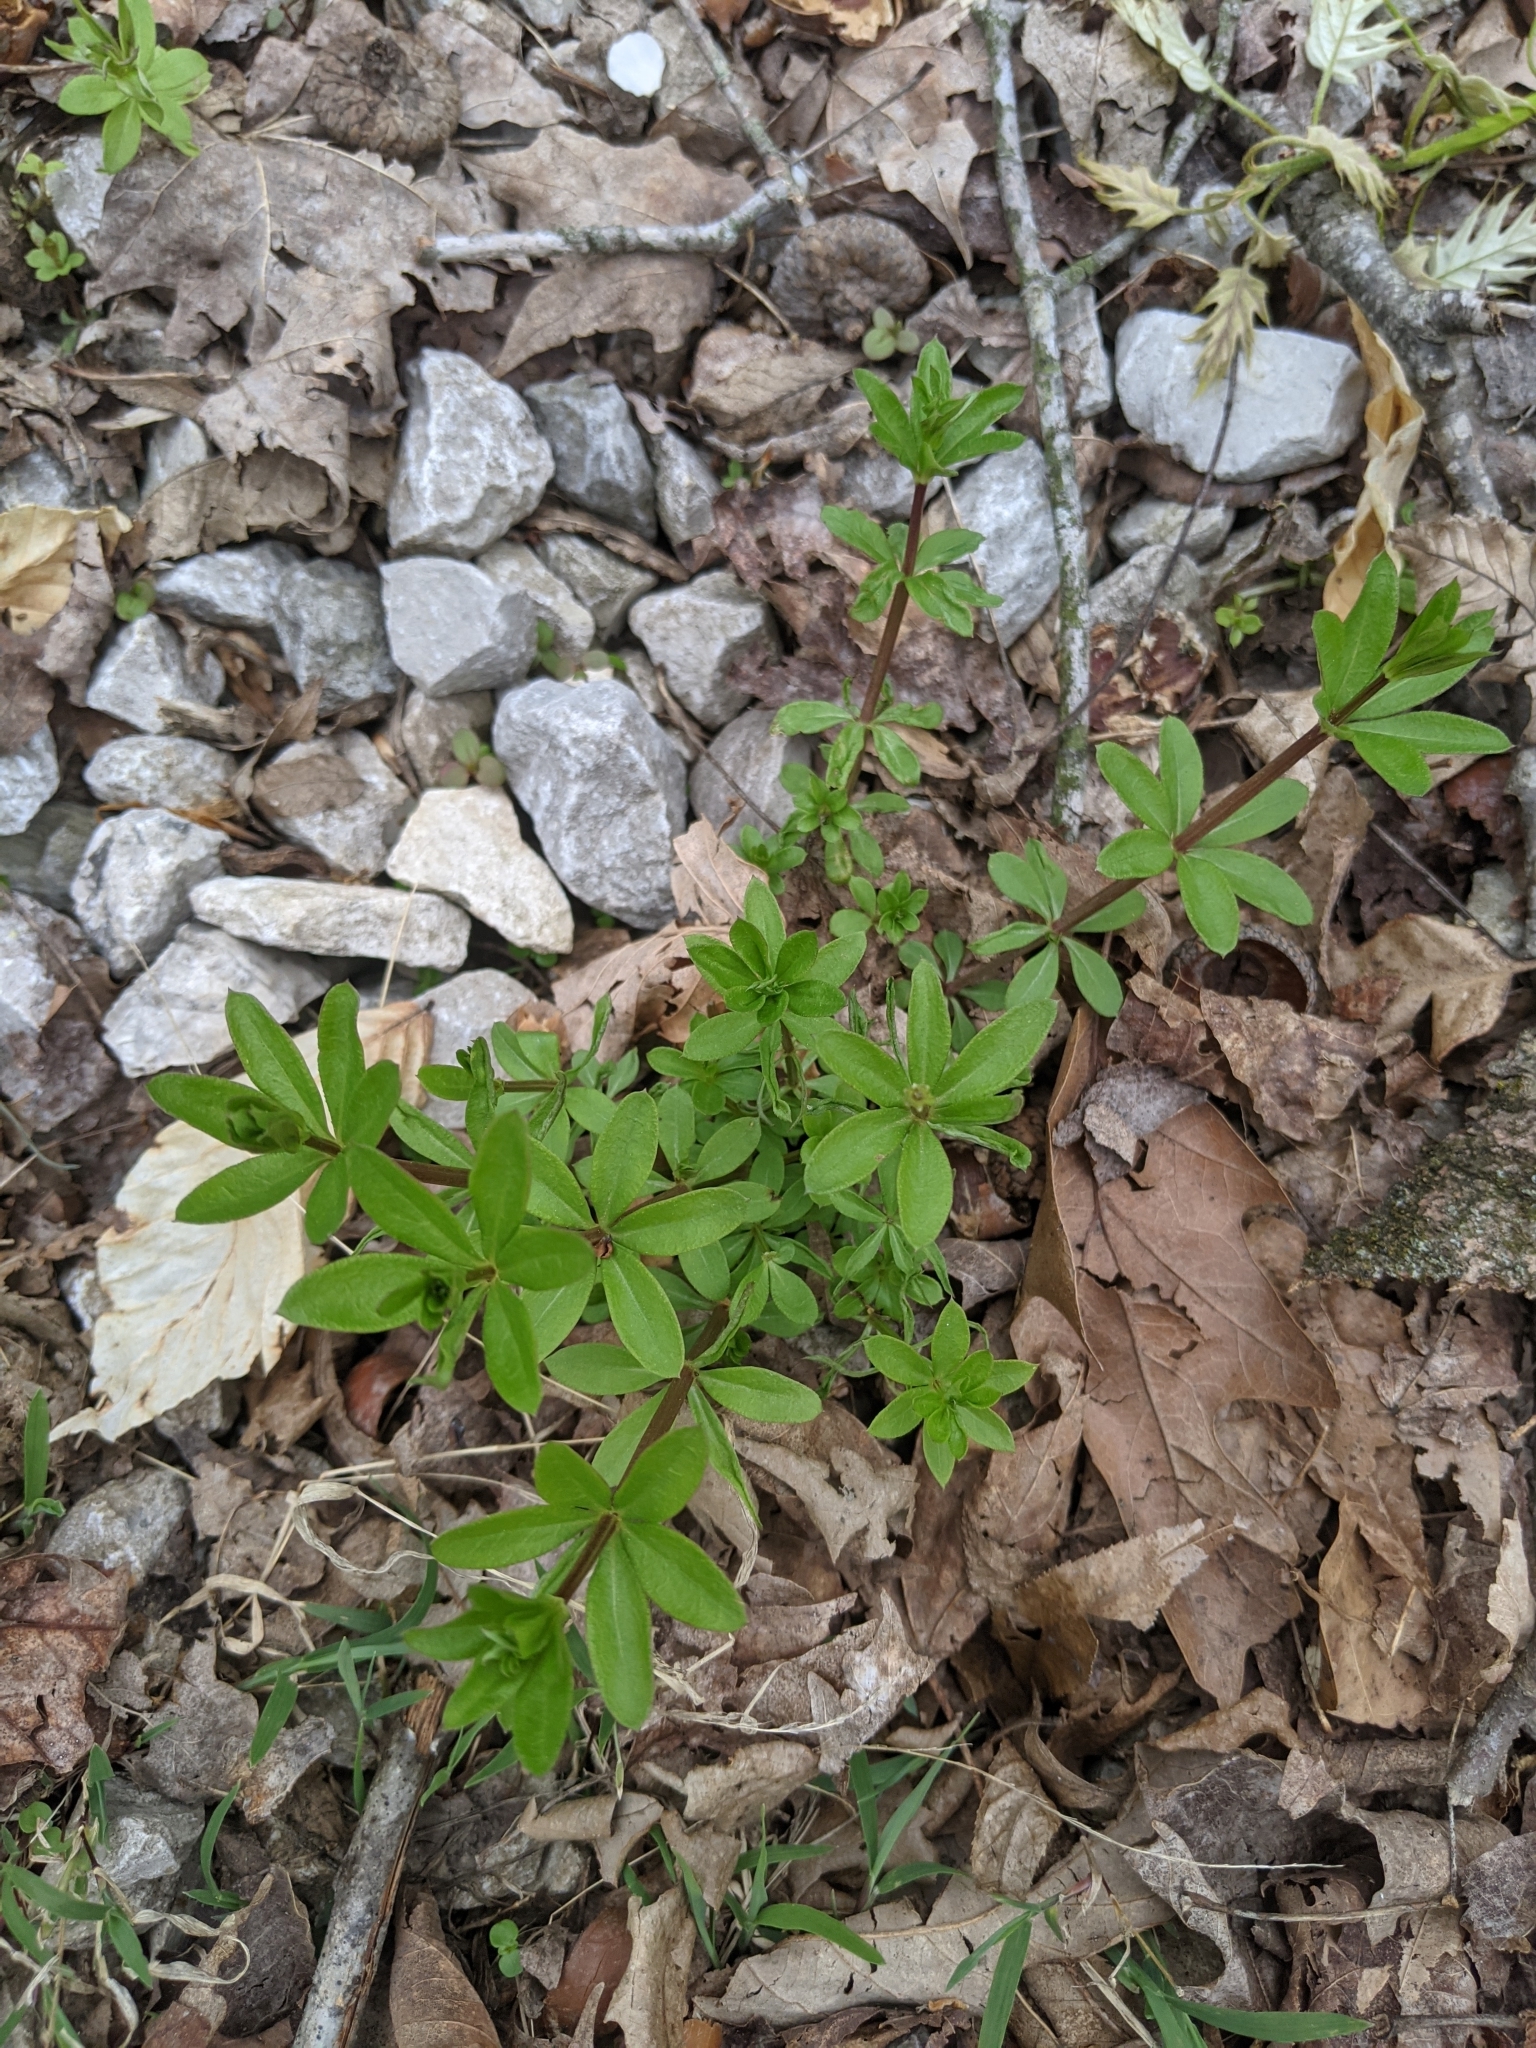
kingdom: Plantae
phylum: Tracheophyta
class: Magnoliopsida
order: Gentianales
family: Rubiaceae
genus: Galium
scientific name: Galium triflorum
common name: Fragrant bedstraw
